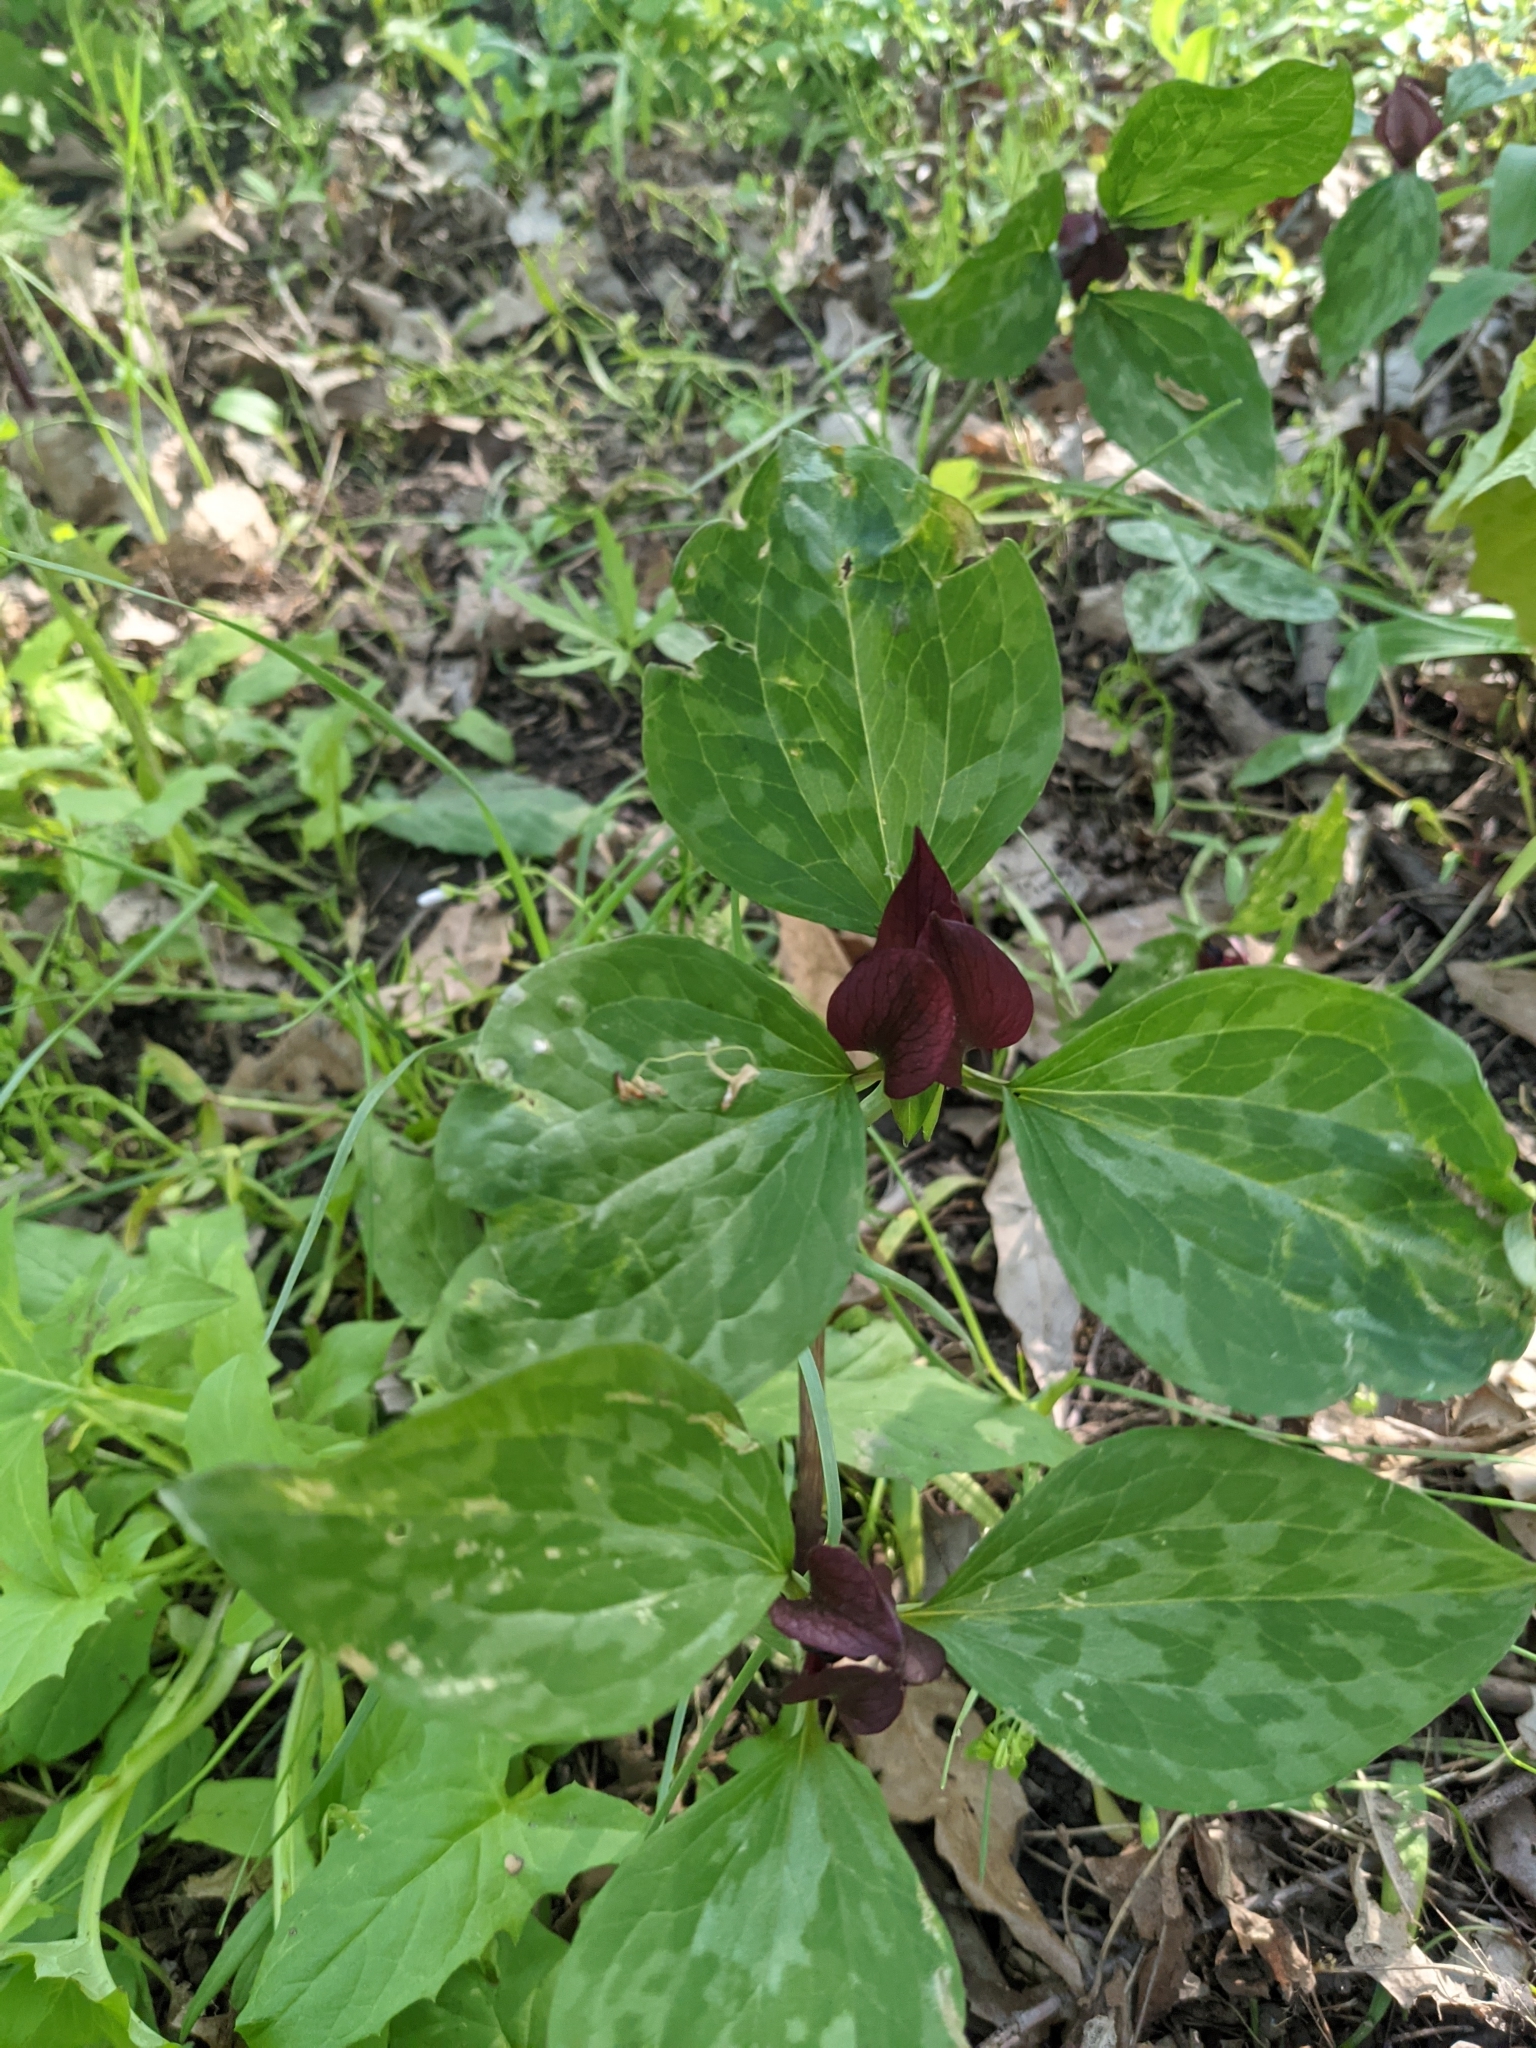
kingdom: Plantae
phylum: Tracheophyta
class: Liliopsida
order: Liliales
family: Melanthiaceae
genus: Trillium
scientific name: Trillium recurvatum
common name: Bloody butcher
